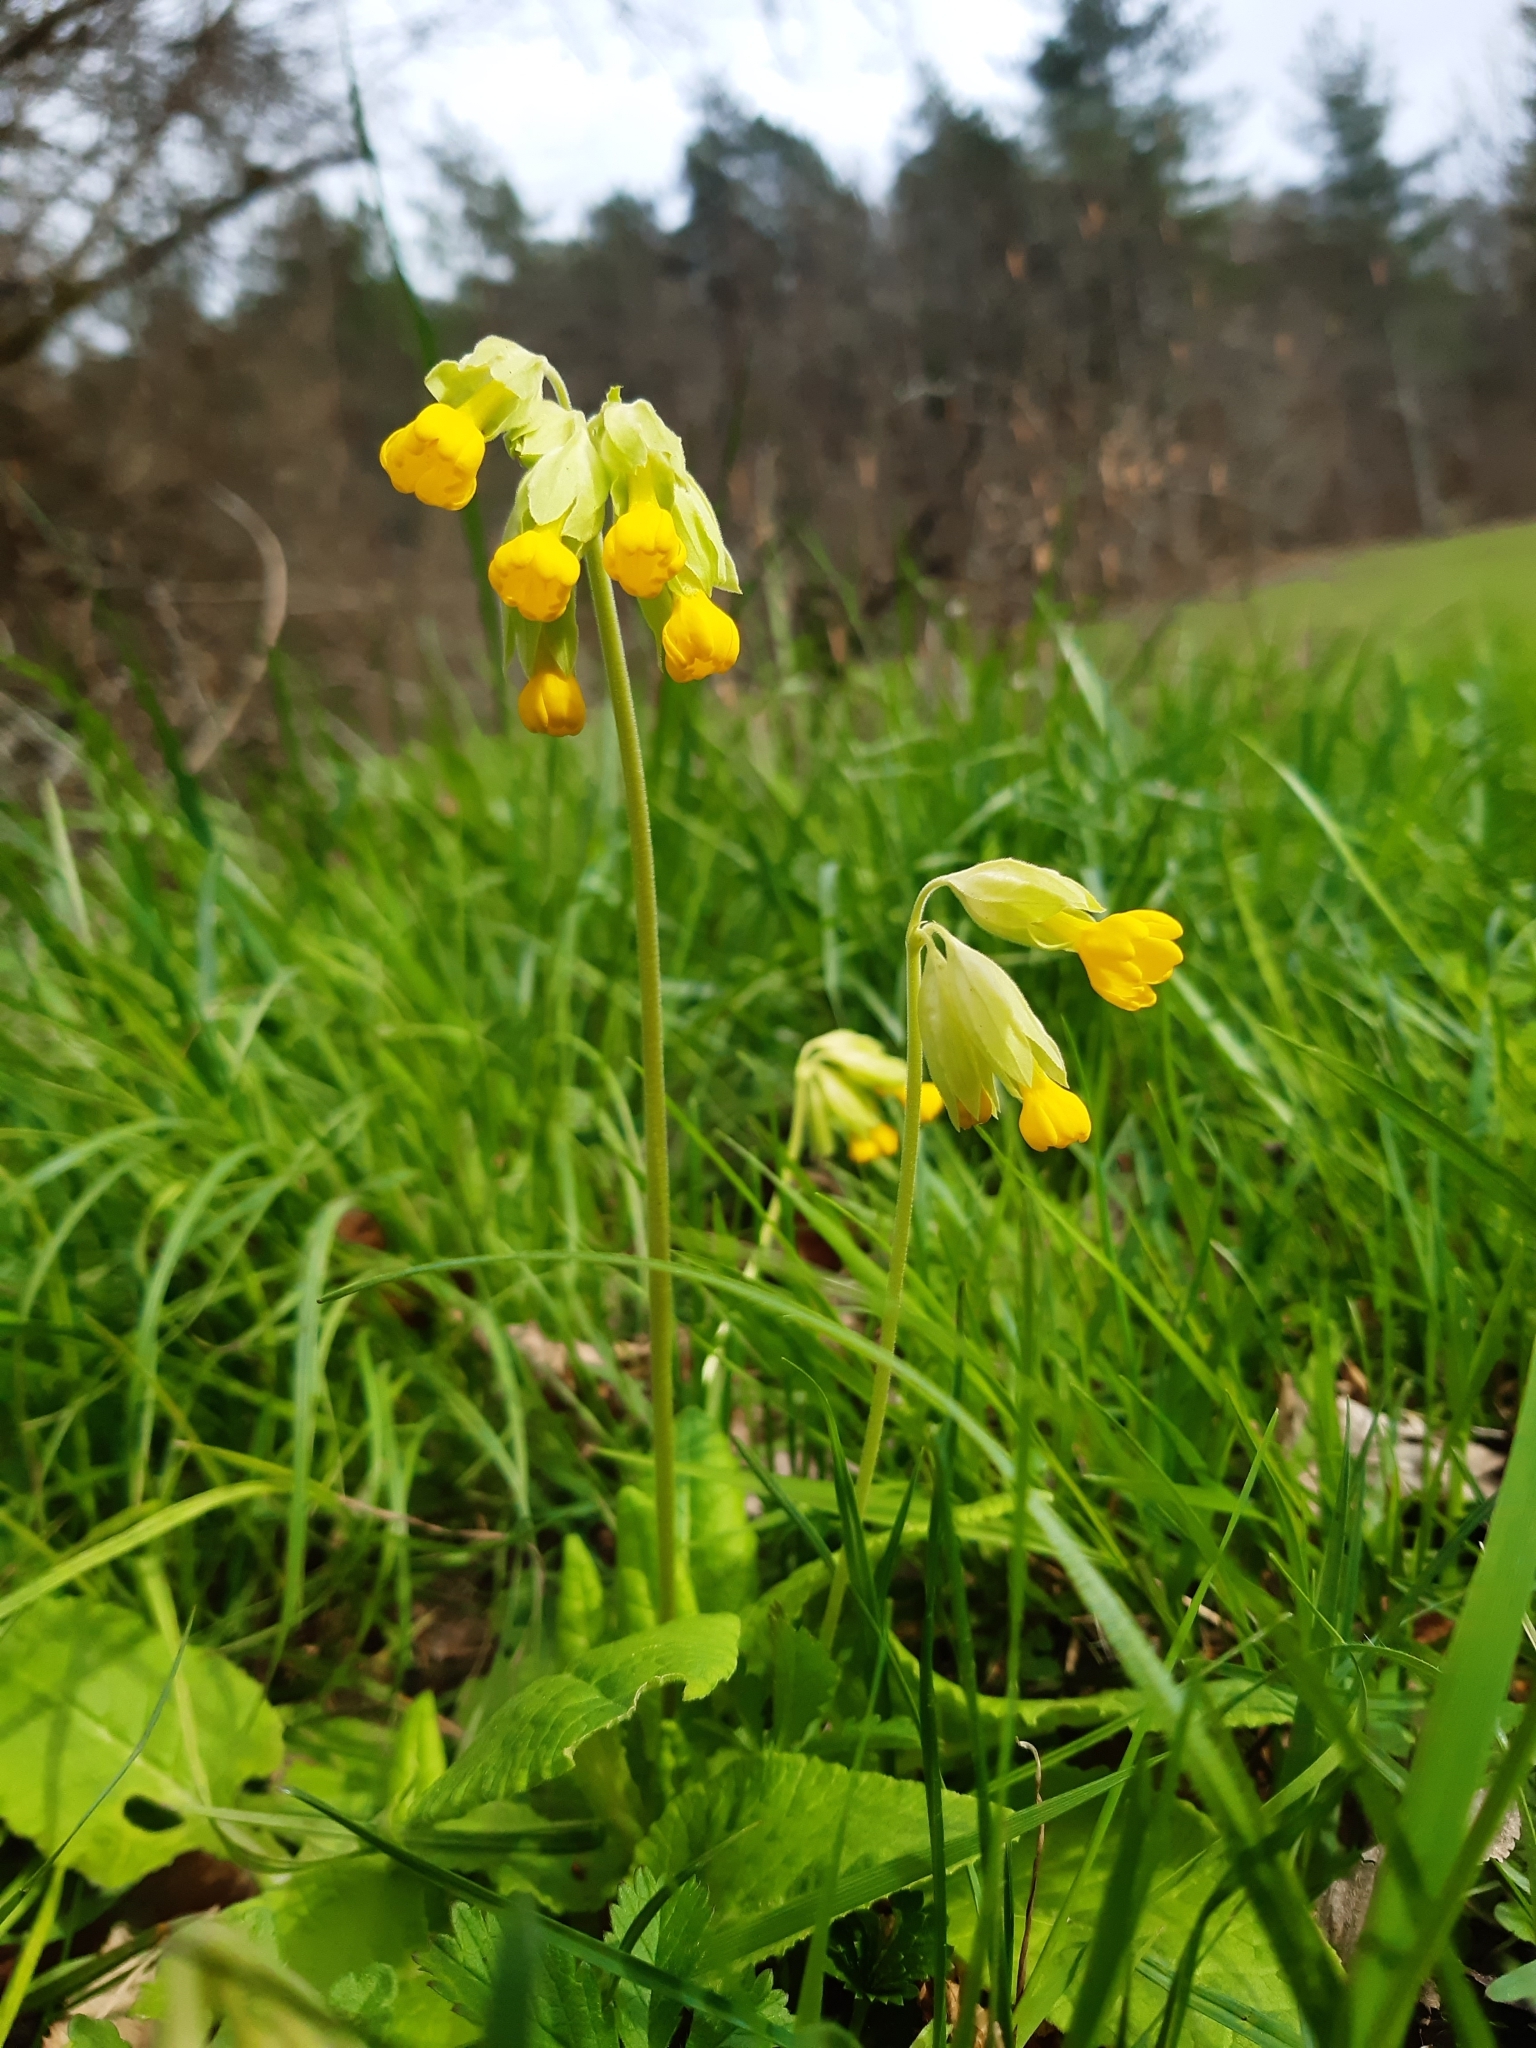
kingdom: Plantae
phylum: Tracheophyta
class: Magnoliopsida
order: Ericales
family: Primulaceae
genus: Primula
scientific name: Primula veris
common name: Cowslip
